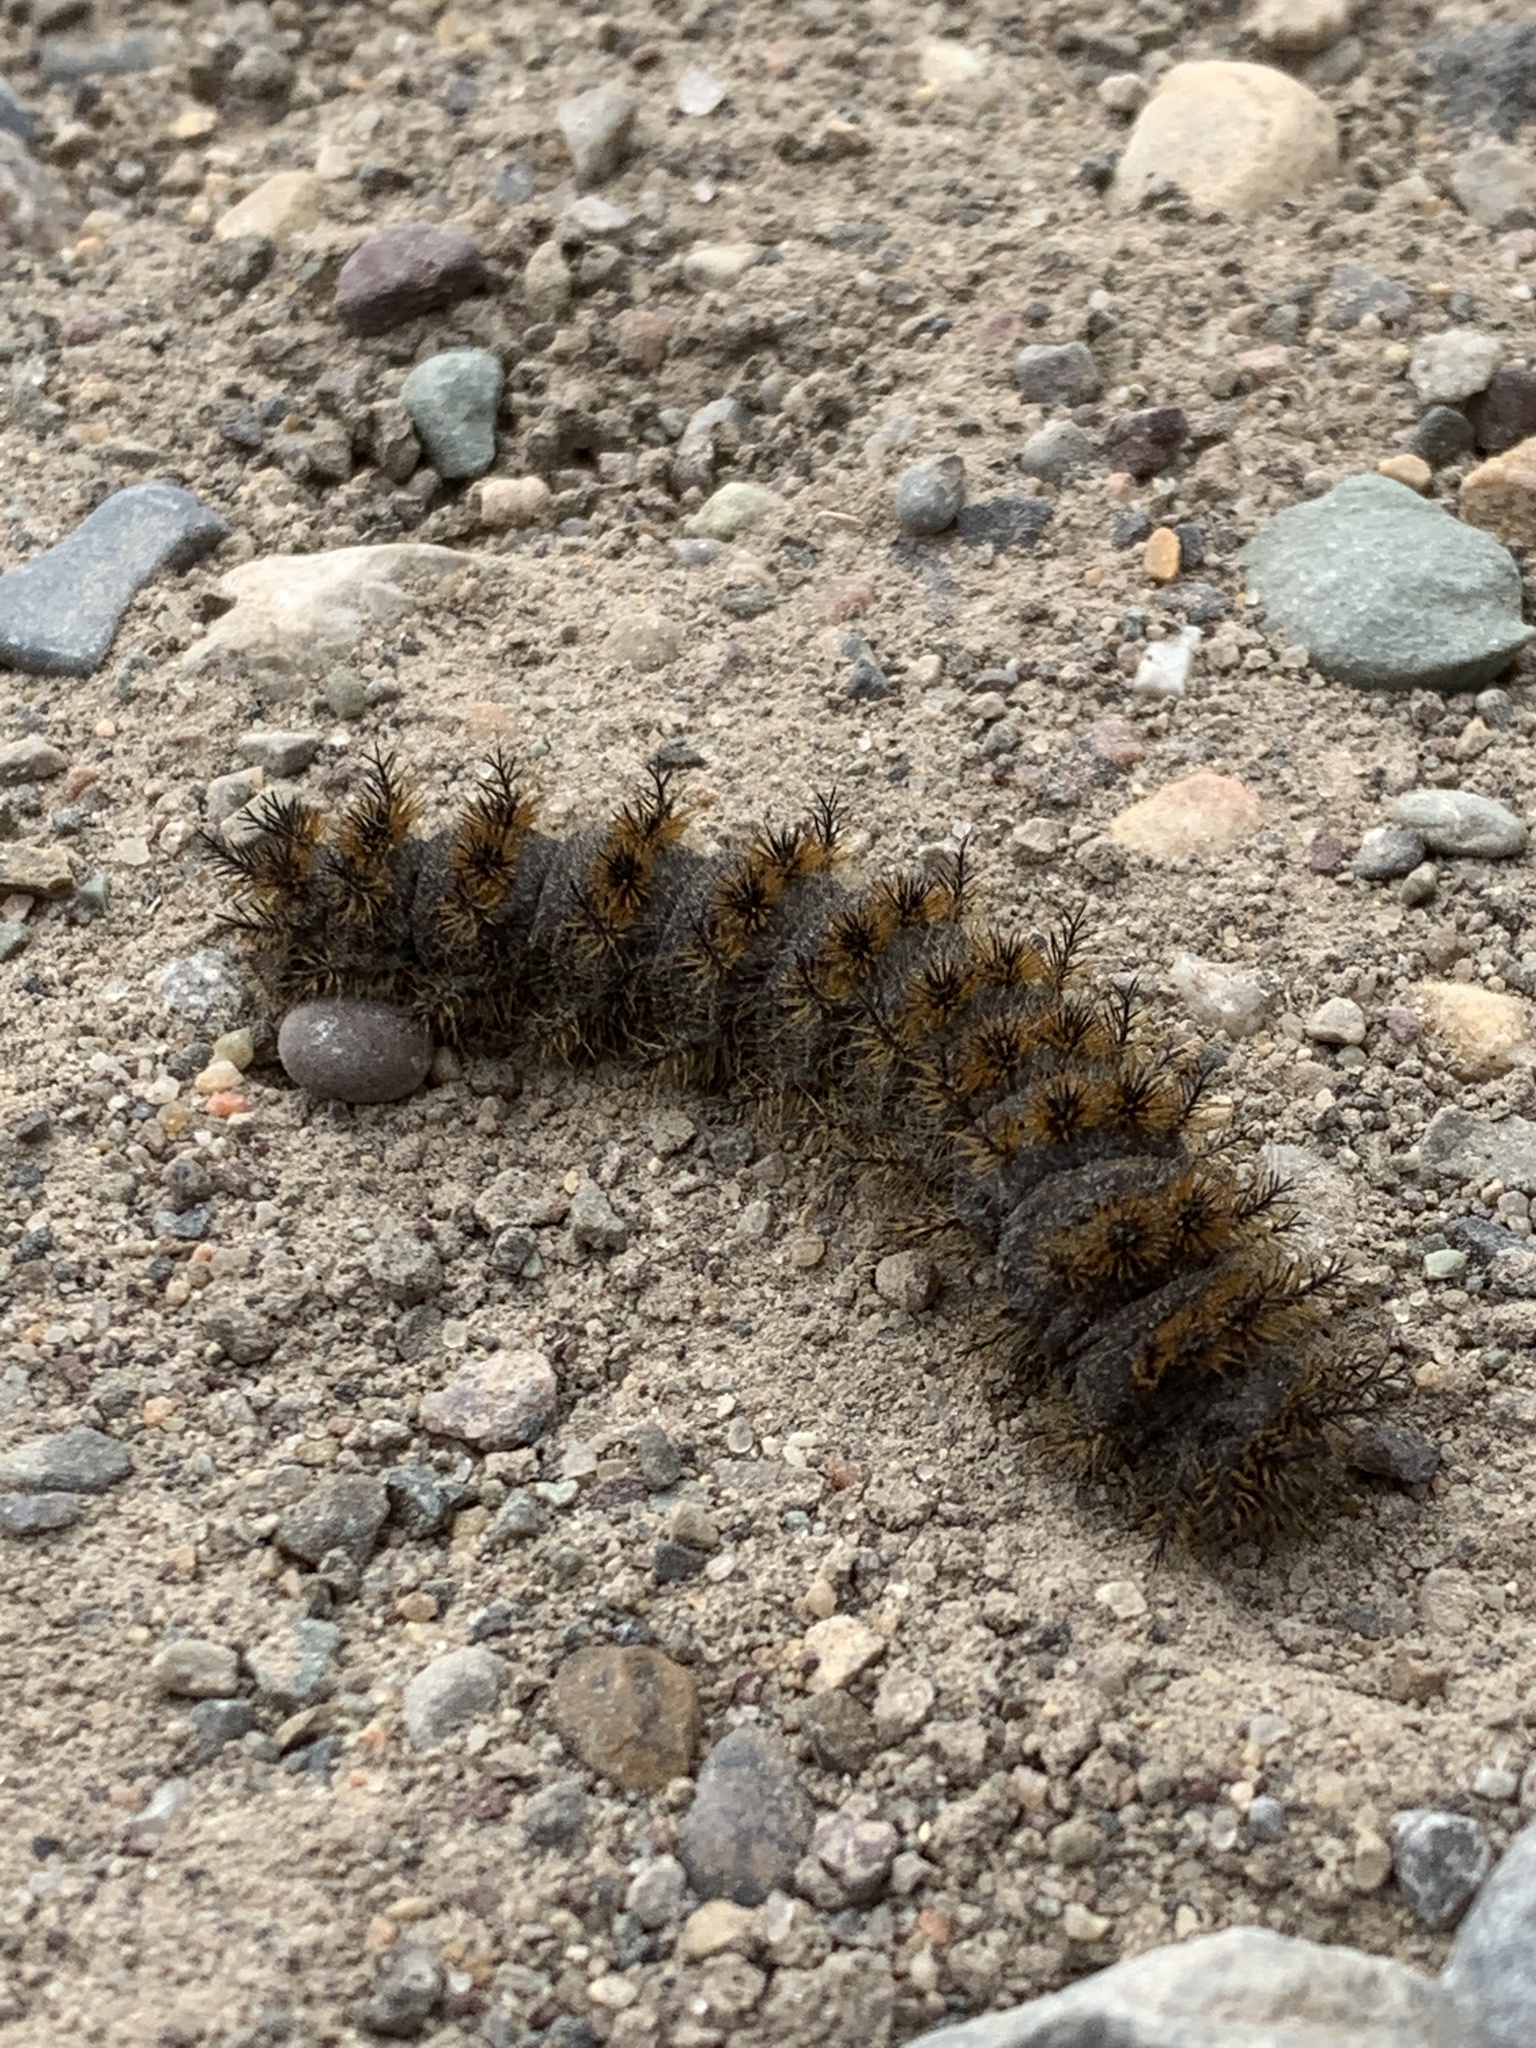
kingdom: Animalia
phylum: Arthropoda
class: Insecta
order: Lepidoptera
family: Saturniidae
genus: Hemileuca
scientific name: Hemileuca eglanterina
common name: Western sheepmoth
